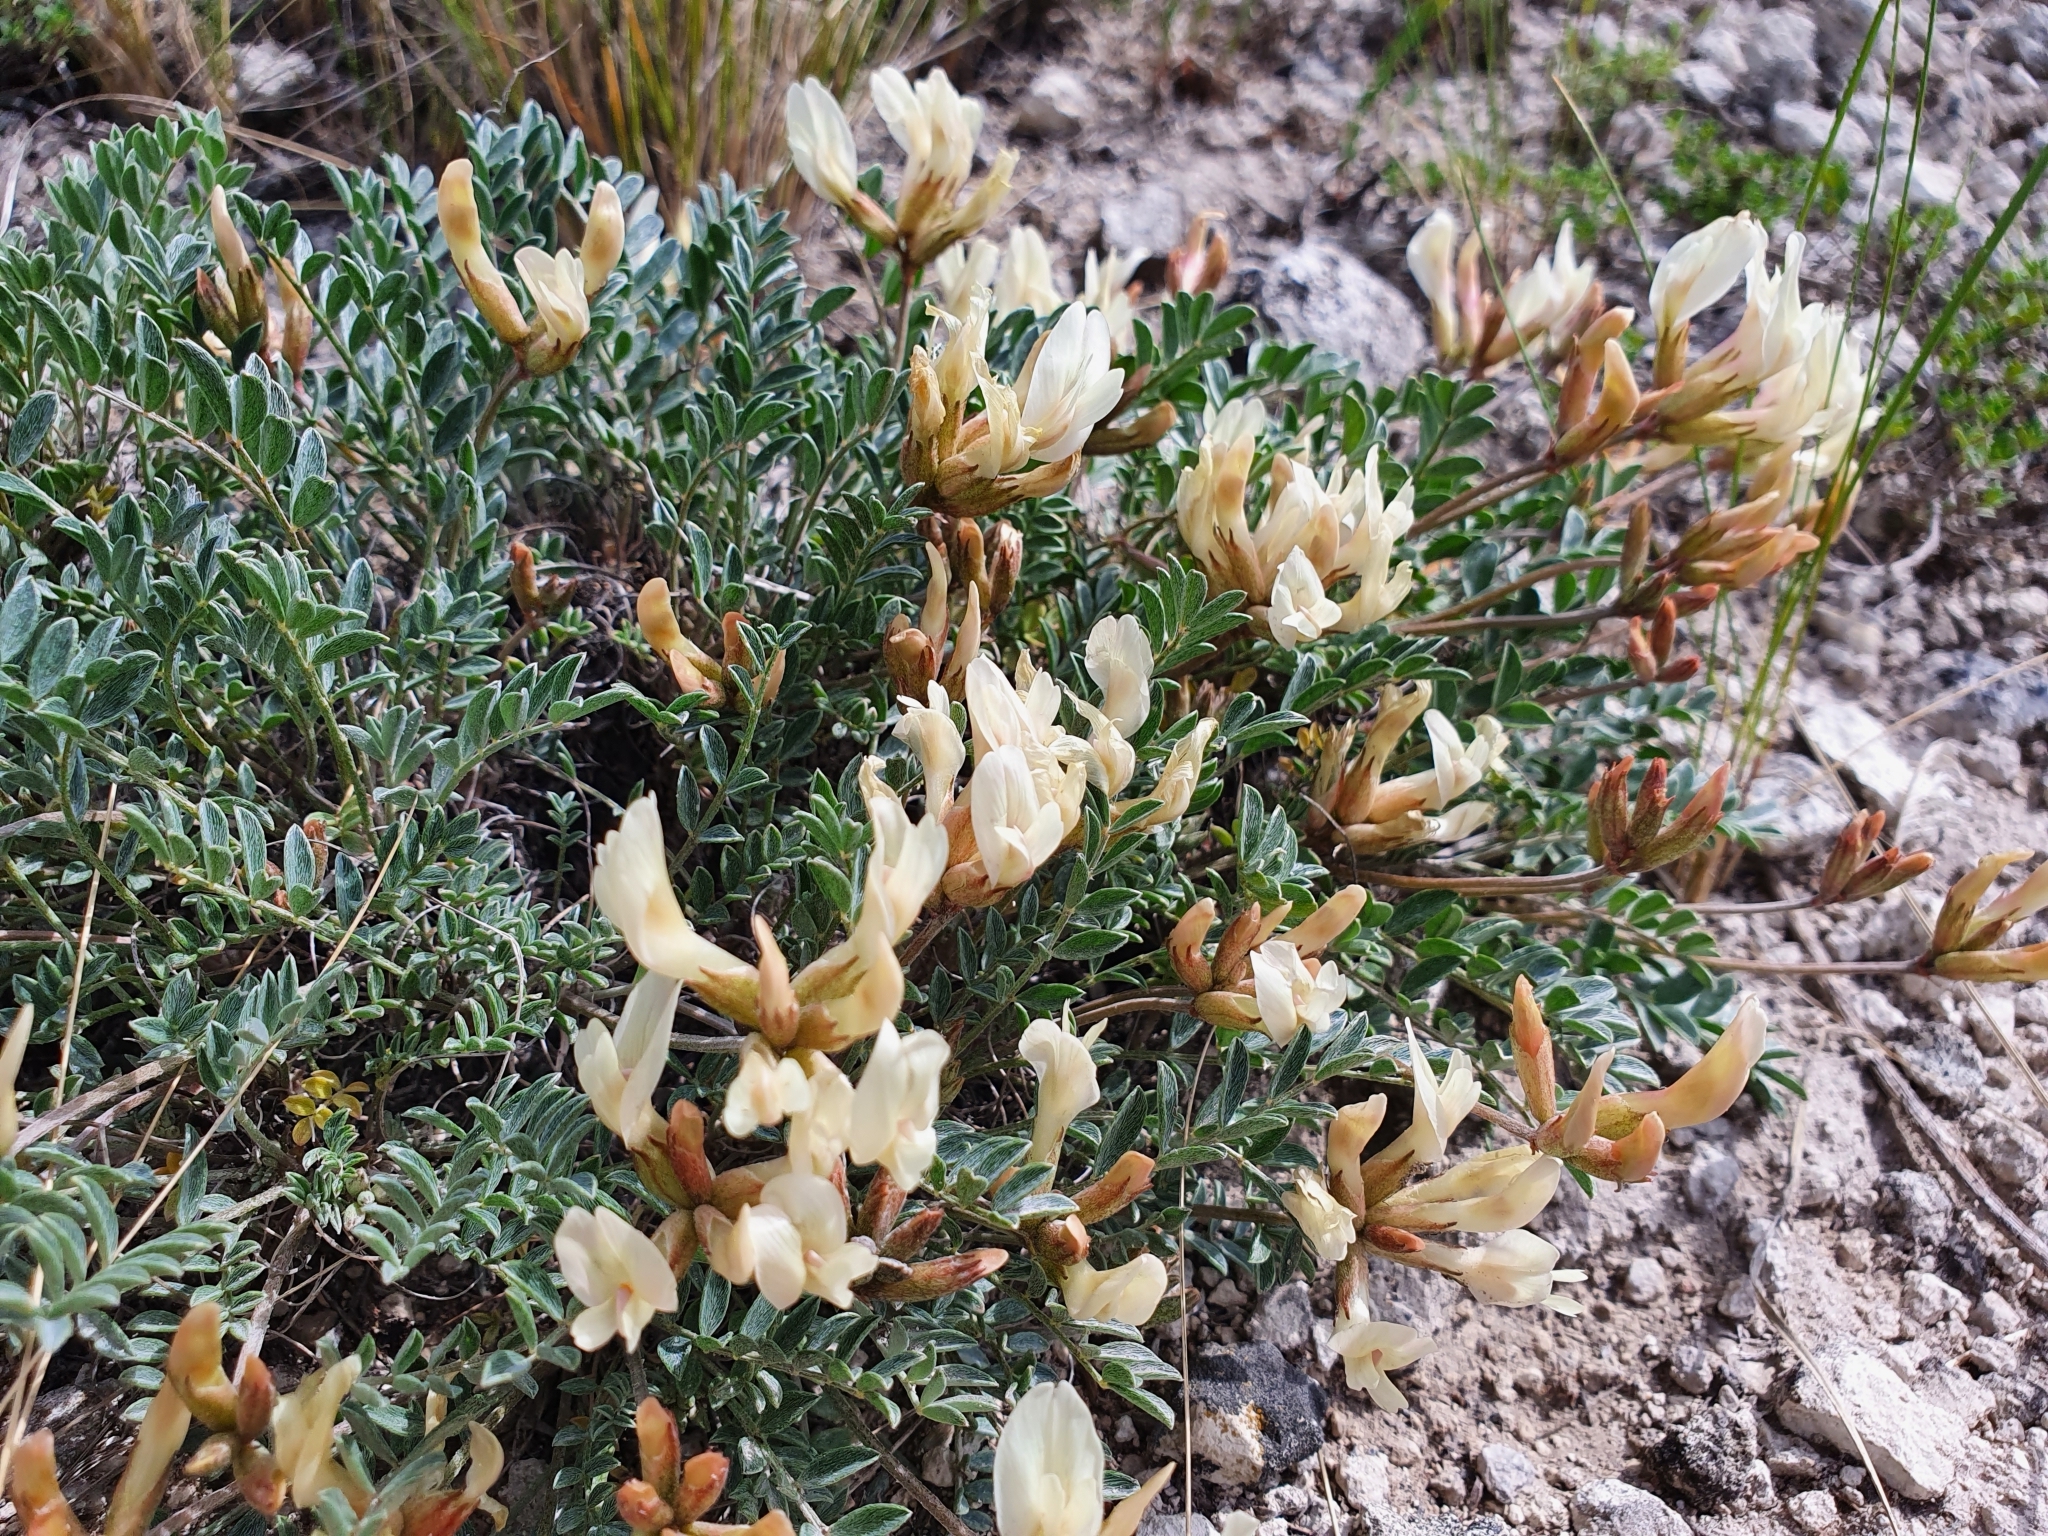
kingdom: Plantae
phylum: Tracheophyta
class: Magnoliopsida
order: Fabales
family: Fabaceae
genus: Astragalus
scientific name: Astragalus helmii
